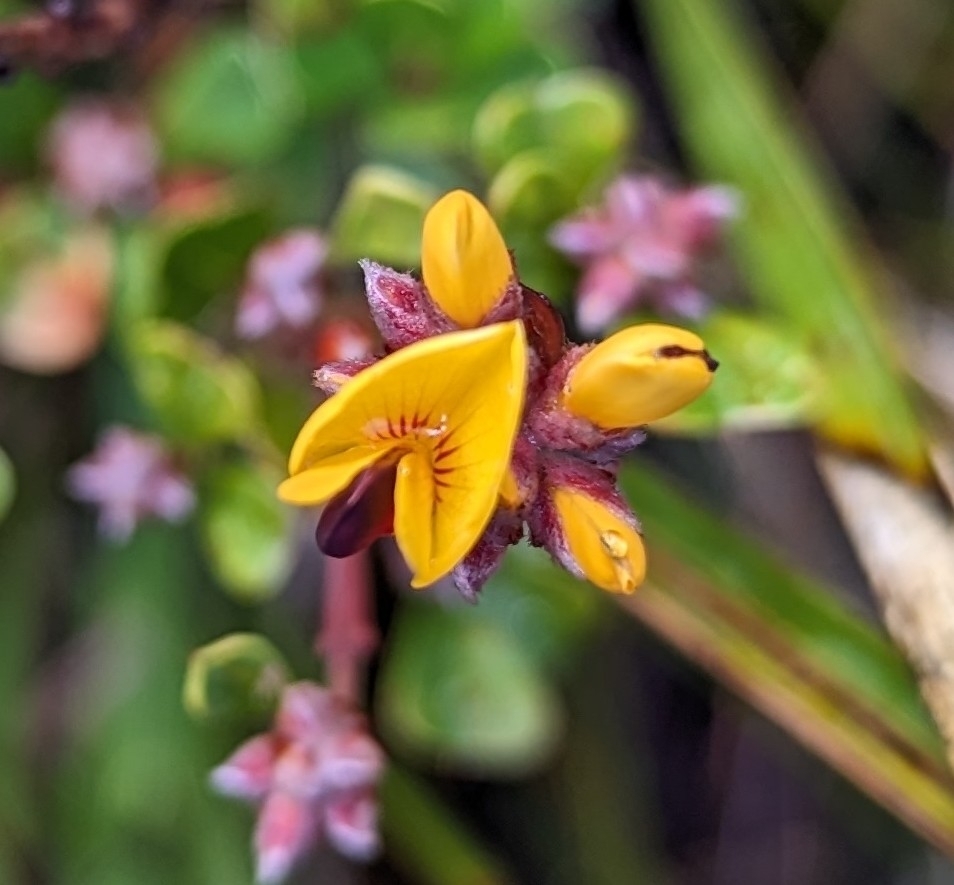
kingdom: Plantae
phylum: Tracheophyta
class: Magnoliopsida
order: Fabales
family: Fabaceae
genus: Pultenaea
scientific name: Pultenaea daphnoides
